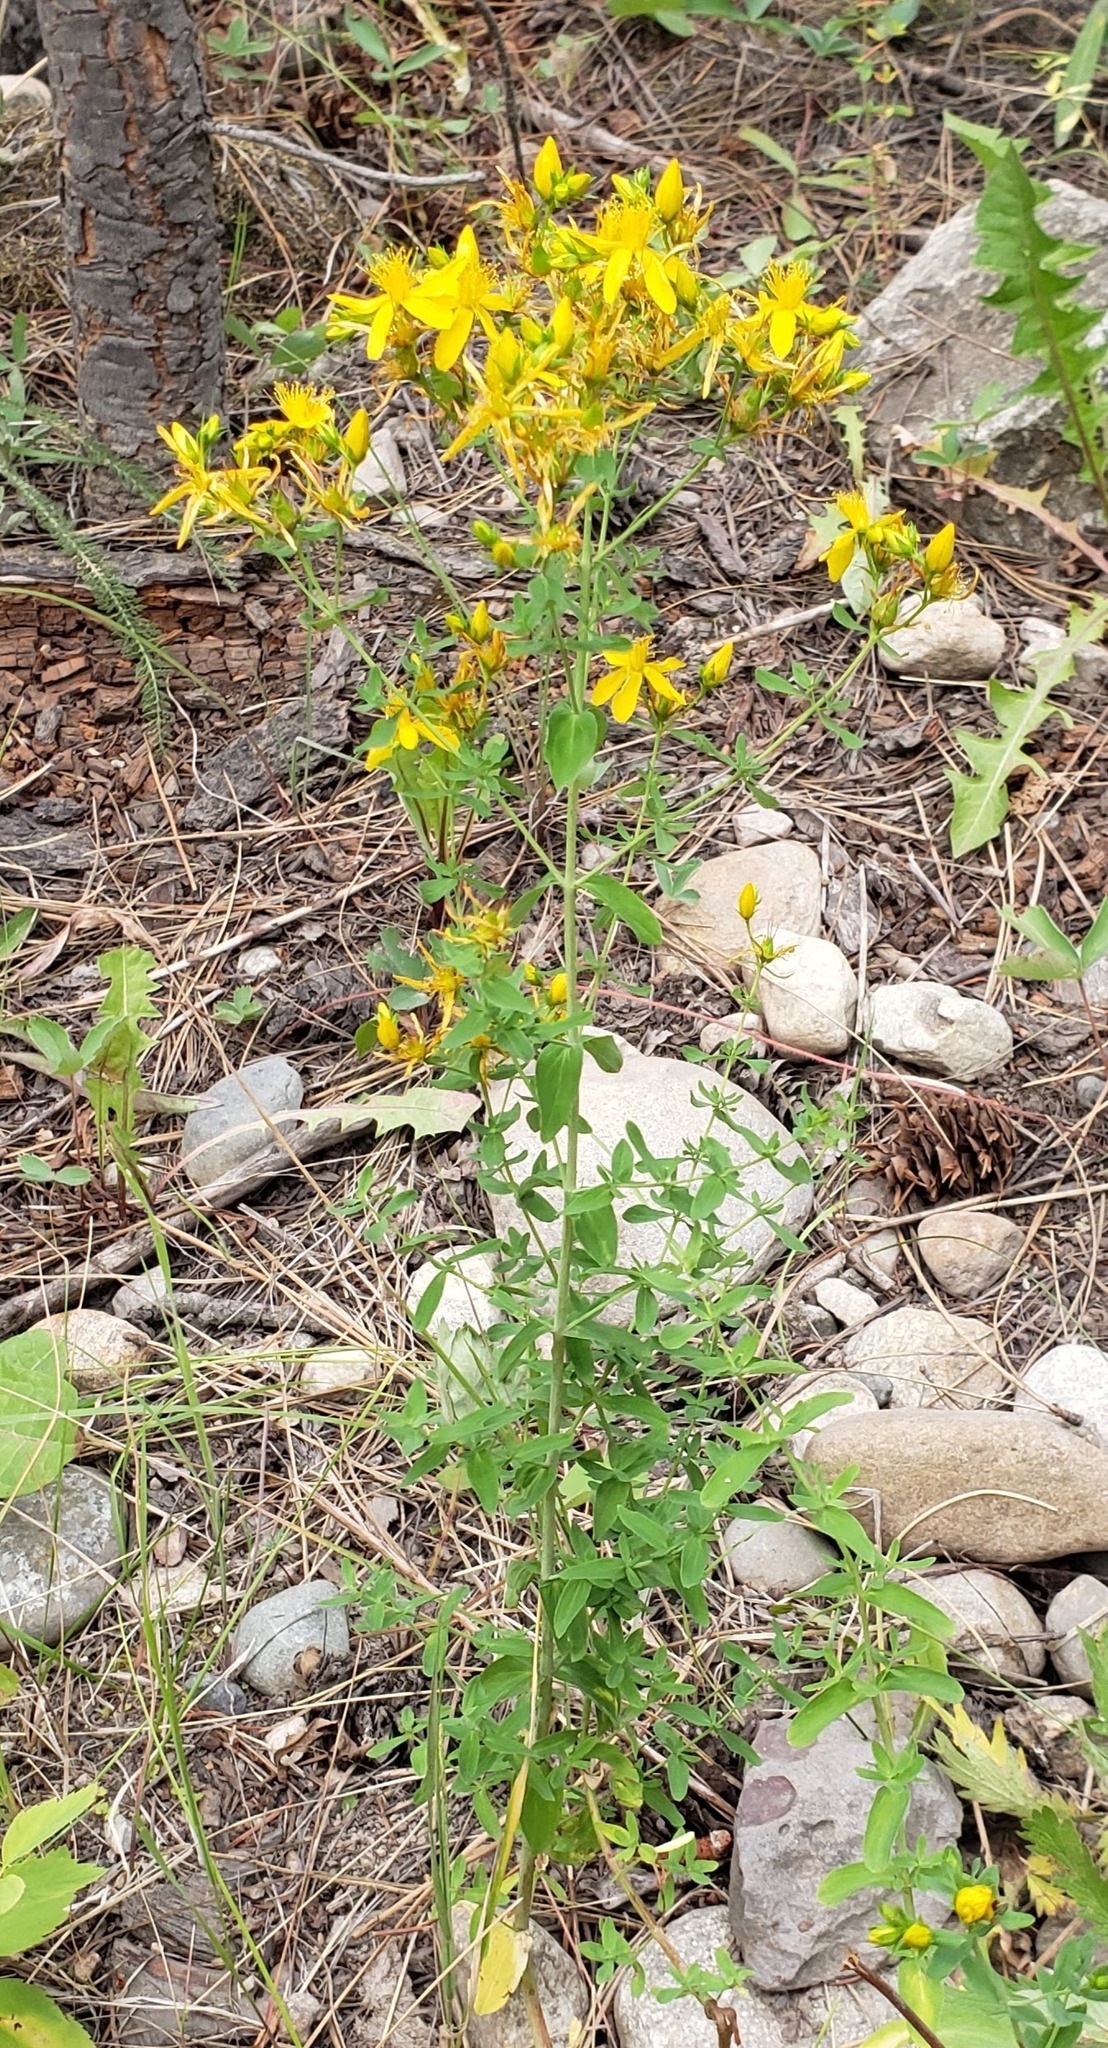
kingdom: Plantae
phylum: Tracheophyta
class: Magnoliopsida
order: Malpighiales
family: Hypericaceae
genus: Hypericum
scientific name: Hypericum perforatum
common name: Common st. johnswort
